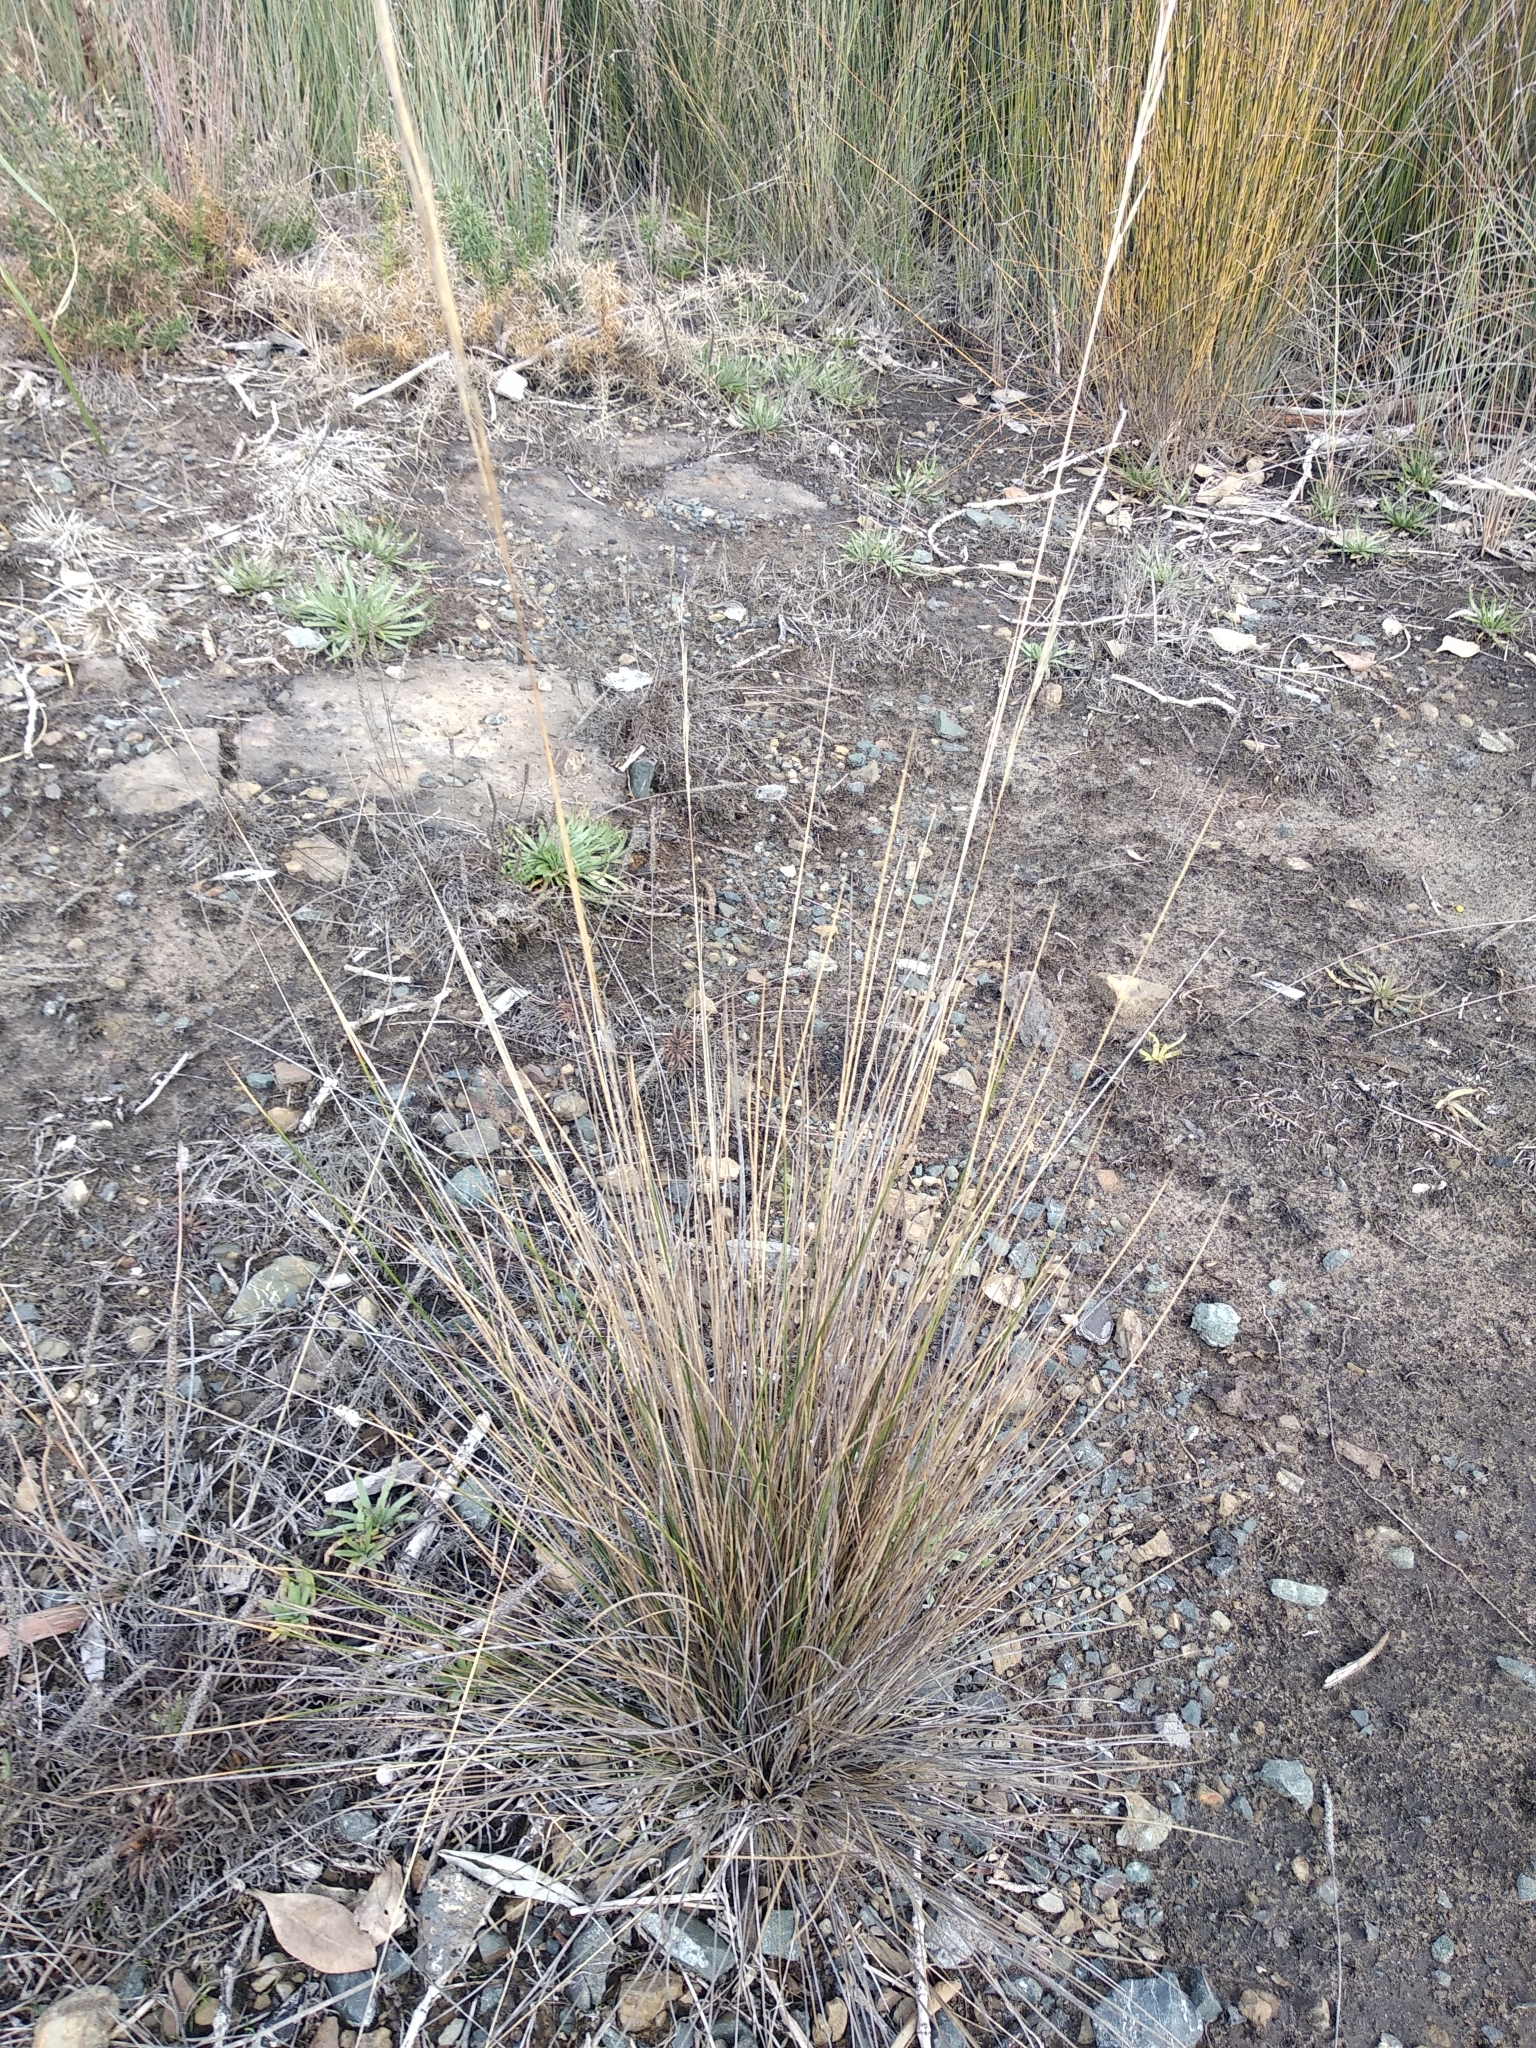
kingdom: Plantae
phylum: Tracheophyta
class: Liliopsida
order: Poales
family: Poaceae
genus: Austrostipa
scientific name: Austrostipa stipoides
